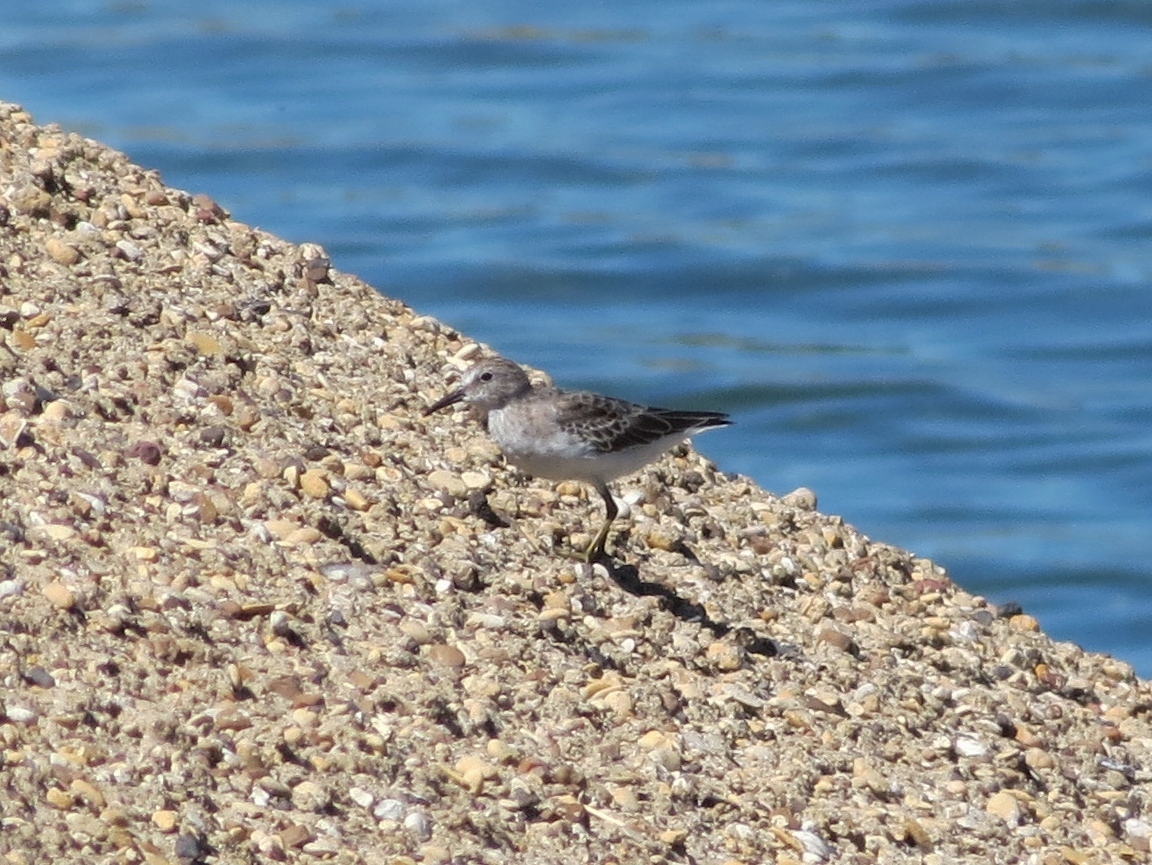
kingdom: Animalia
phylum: Chordata
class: Aves
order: Charadriiformes
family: Scolopacidae
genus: Calidris
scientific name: Calidris minutilla
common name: Least sandpiper
